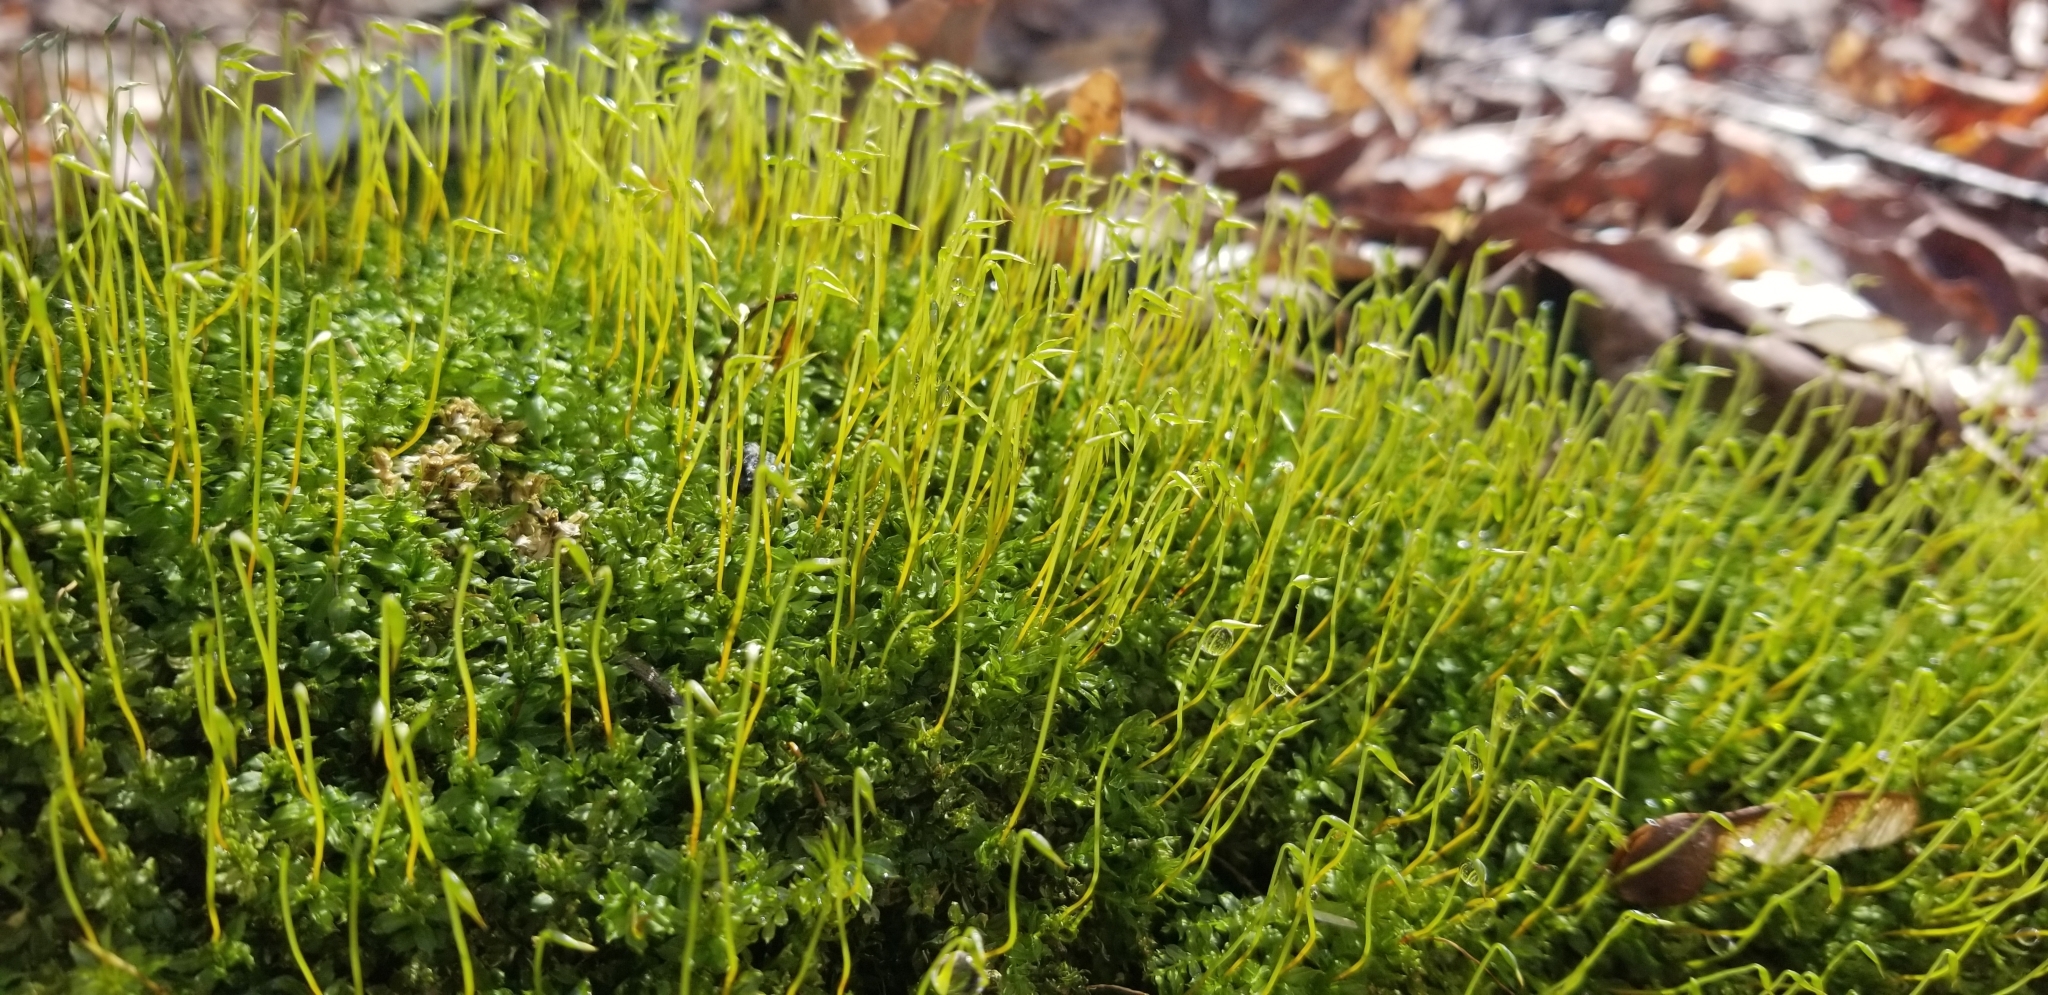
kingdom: Plantae
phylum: Bryophyta
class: Bryopsida
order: Bryales
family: Mniaceae
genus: Plagiomnium
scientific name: Plagiomnium cuspidatum
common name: Woodsy leafy moss
